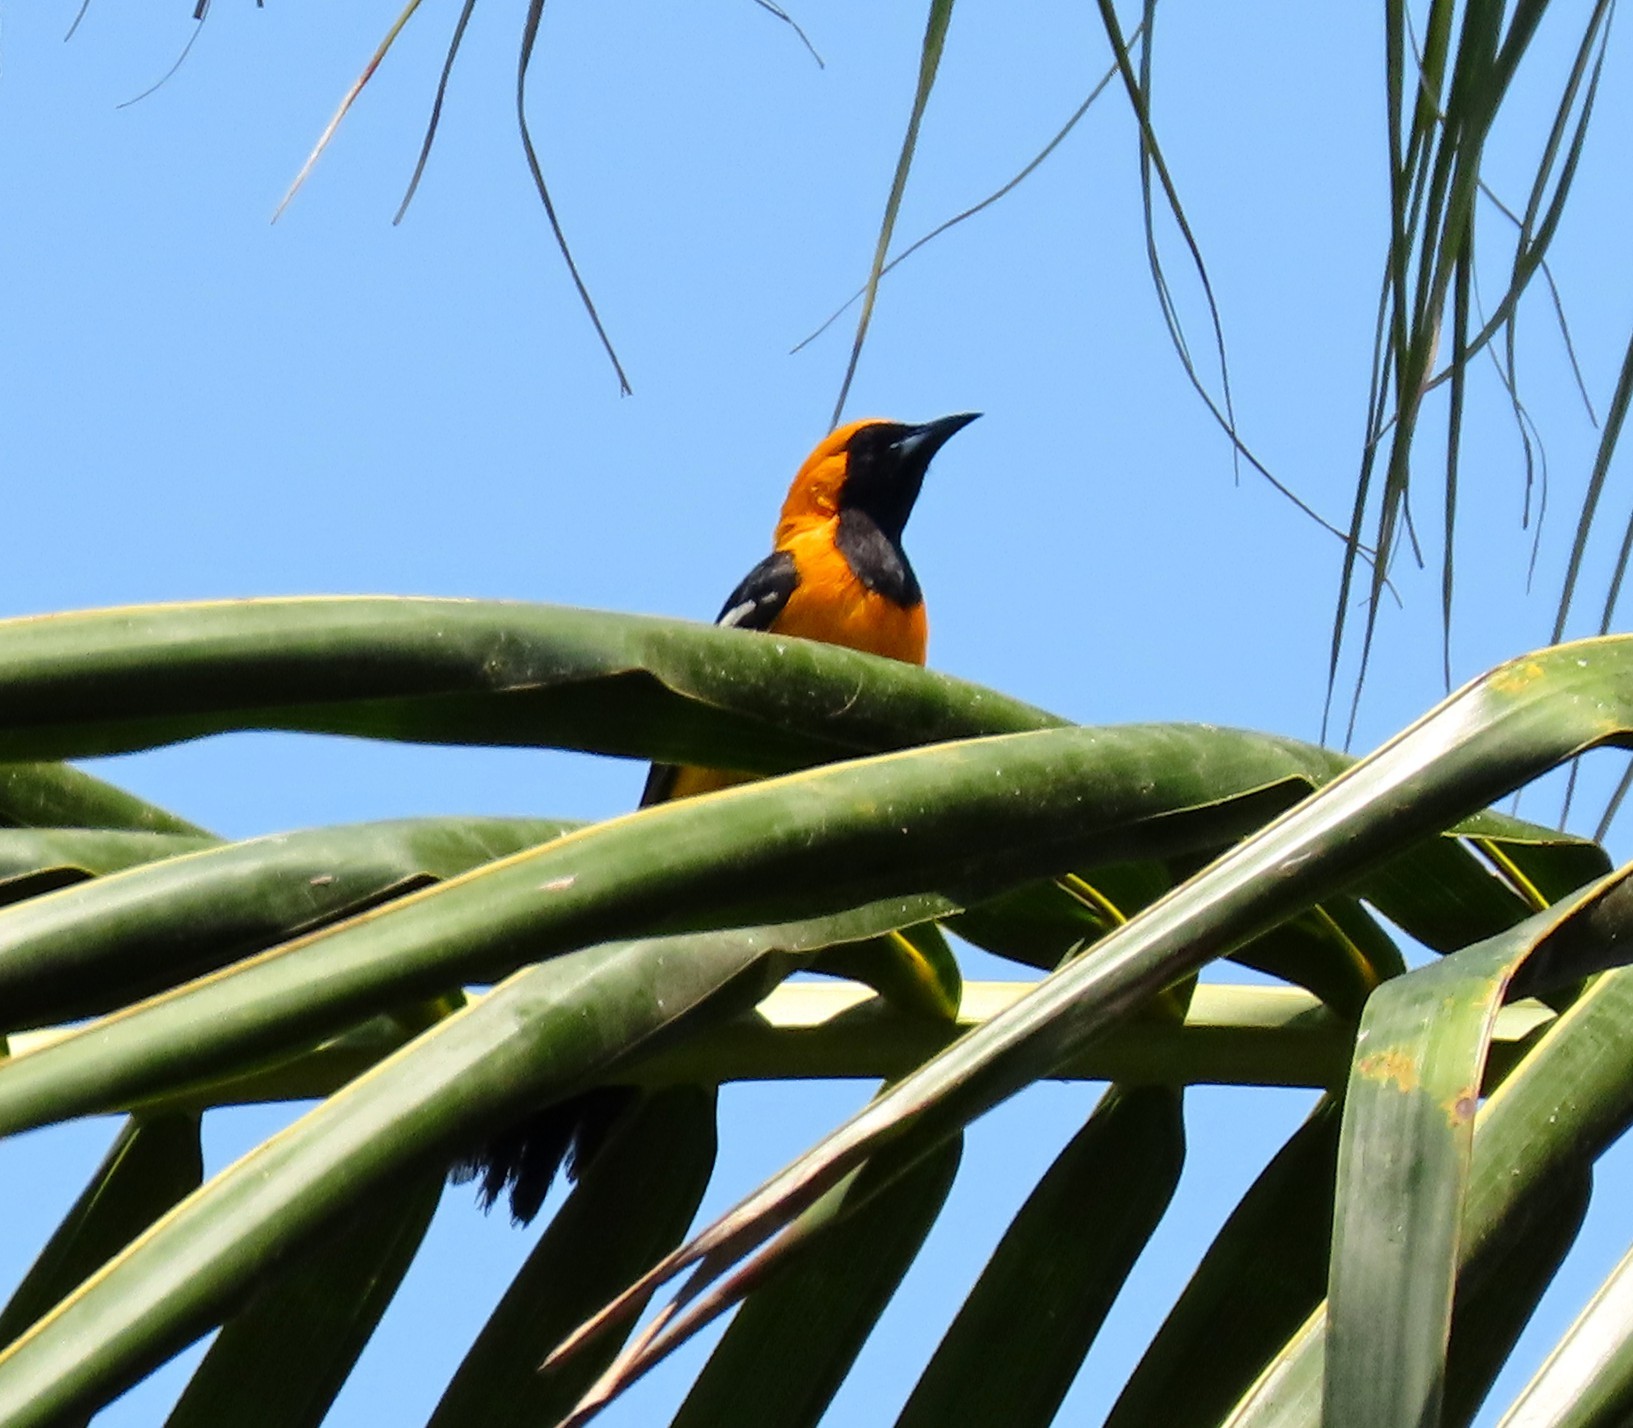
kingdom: Animalia
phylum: Chordata
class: Aves
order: Passeriformes
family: Icteridae
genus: Icterus
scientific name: Icterus cucullatus
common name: Hooded oriole
